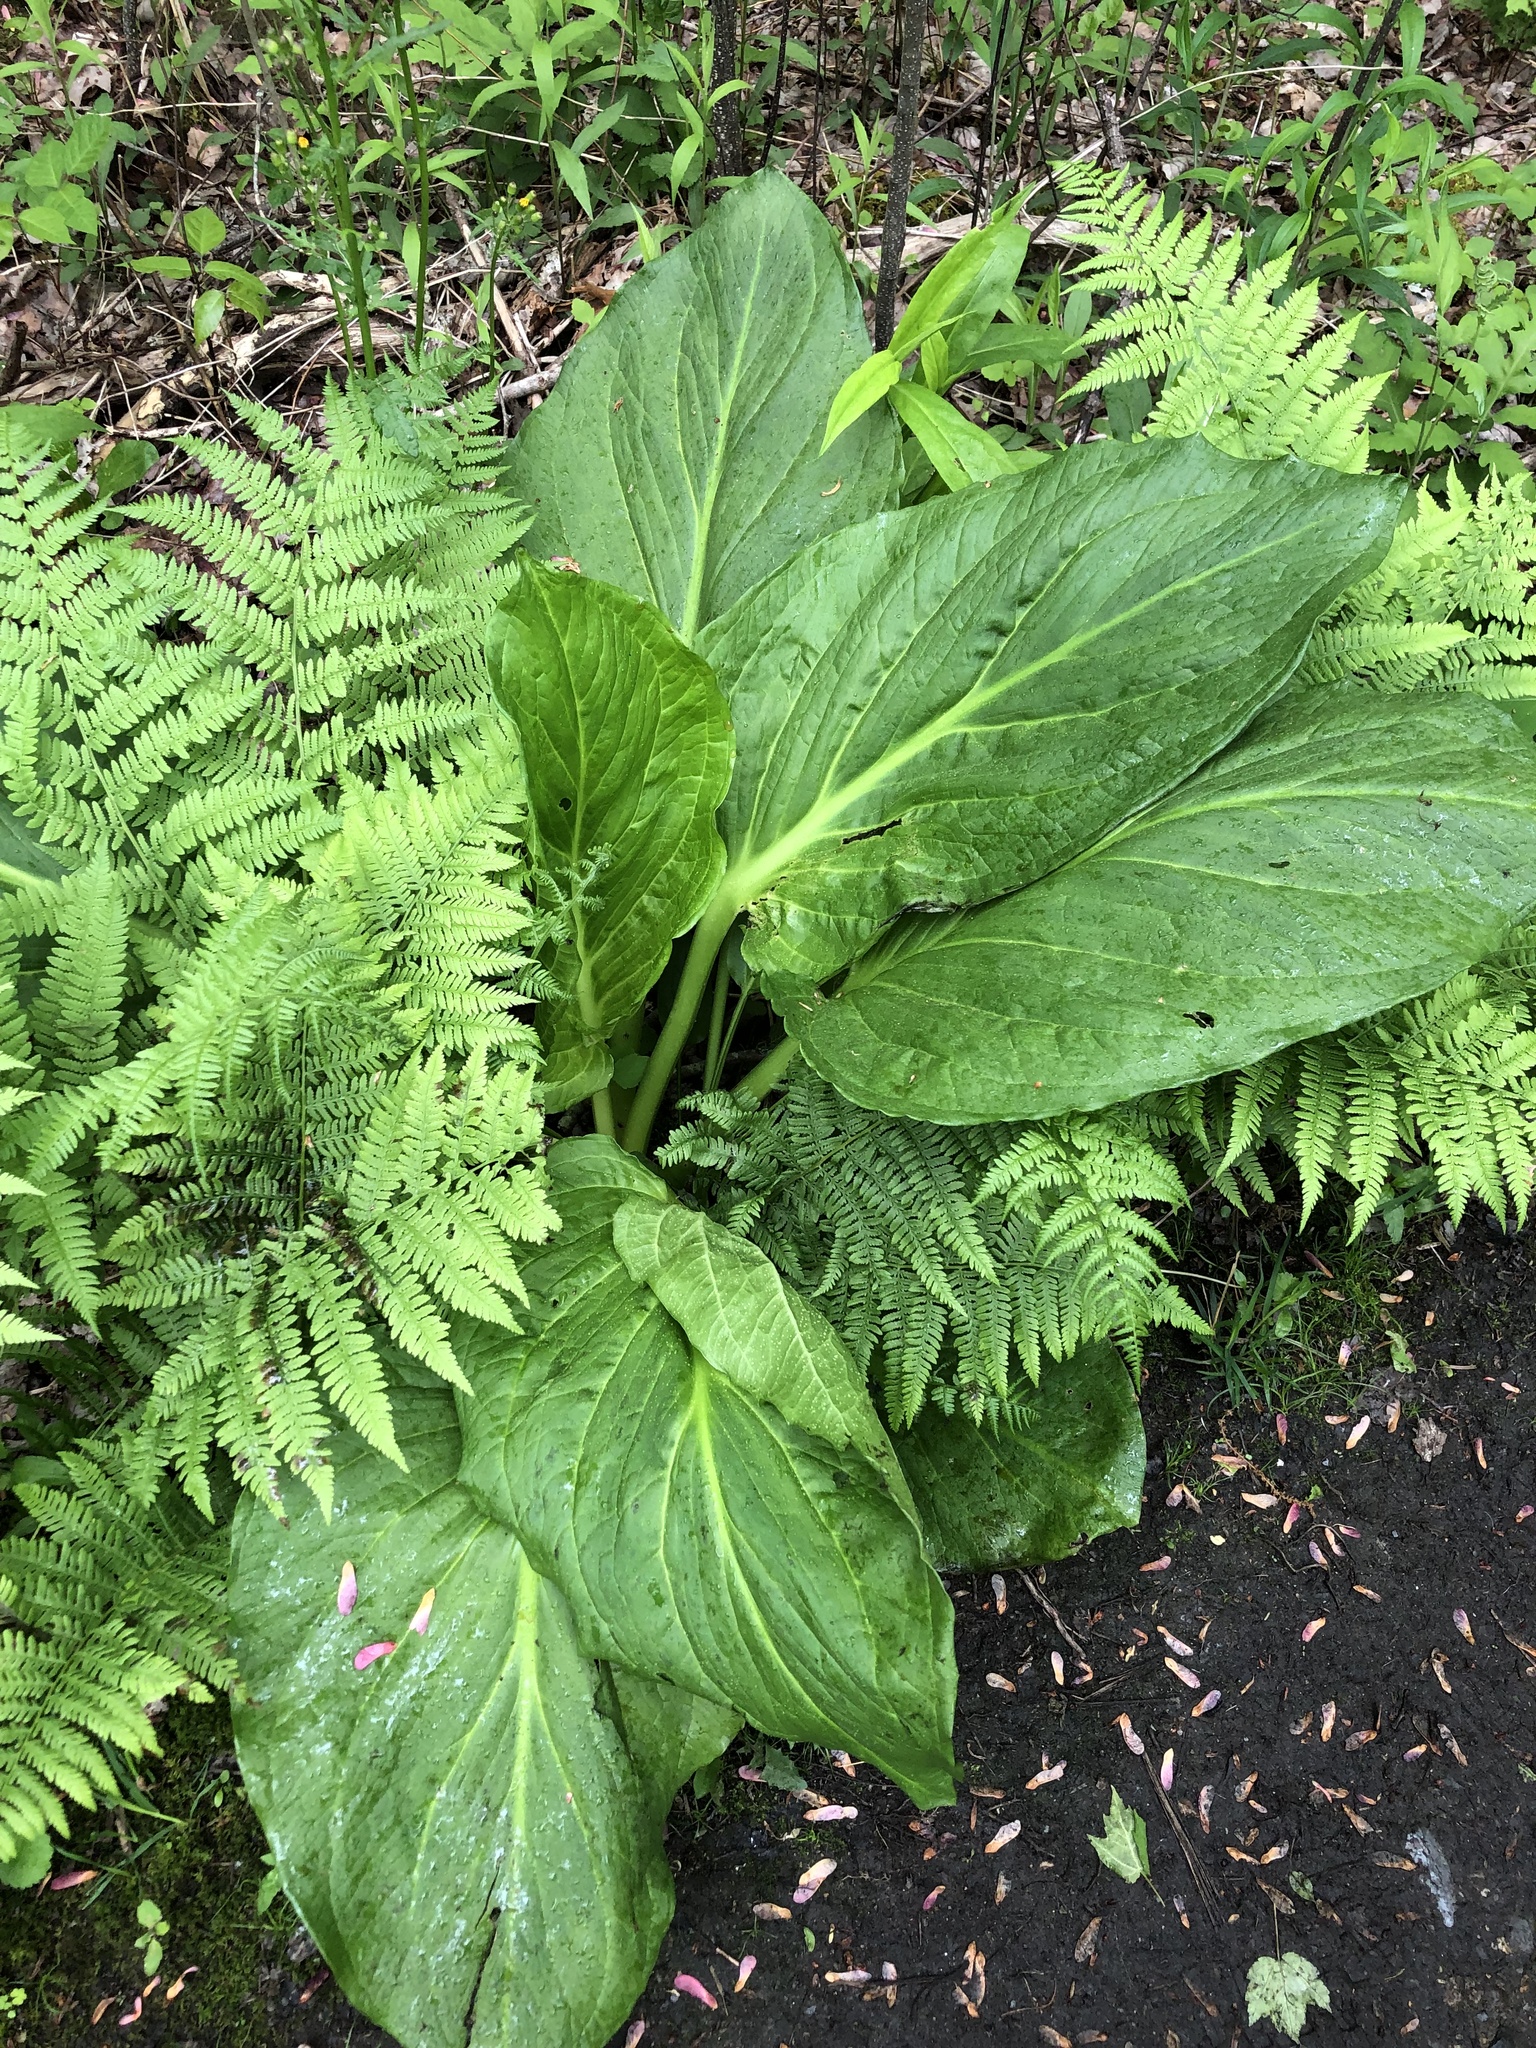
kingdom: Plantae
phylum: Tracheophyta
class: Liliopsida
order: Alismatales
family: Araceae
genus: Symplocarpus
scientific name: Symplocarpus foetidus
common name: Eastern skunk cabbage
